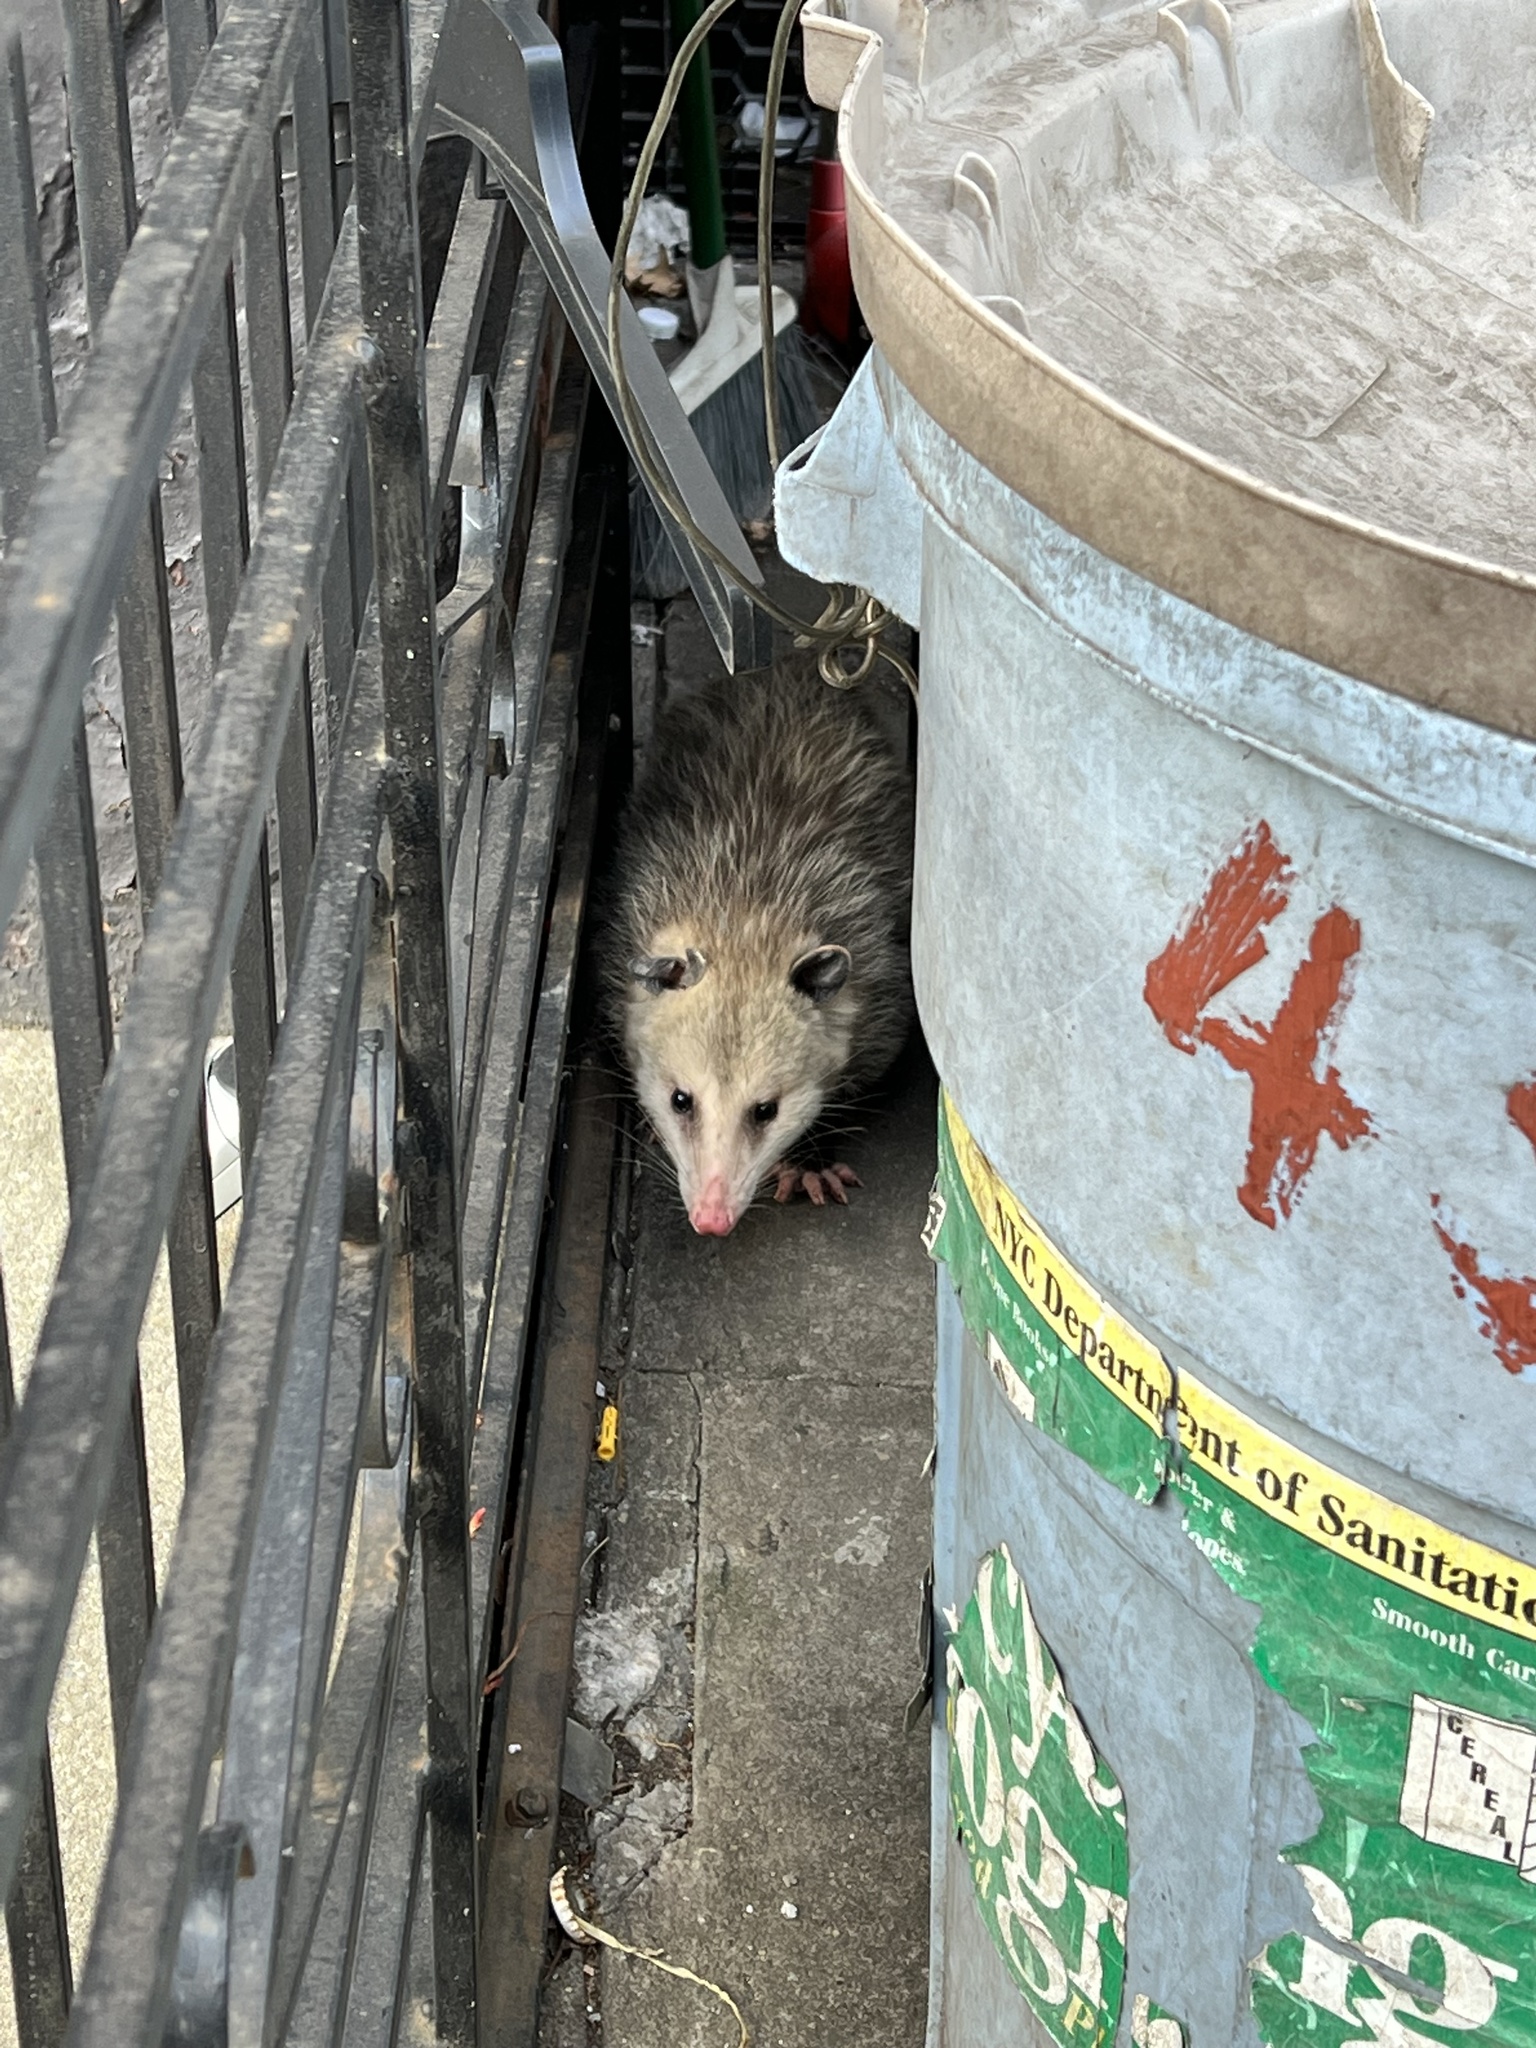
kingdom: Animalia
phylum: Chordata
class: Mammalia
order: Didelphimorphia
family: Didelphidae
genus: Didelphis
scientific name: Didelphis virginiana
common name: Virginia opossum
